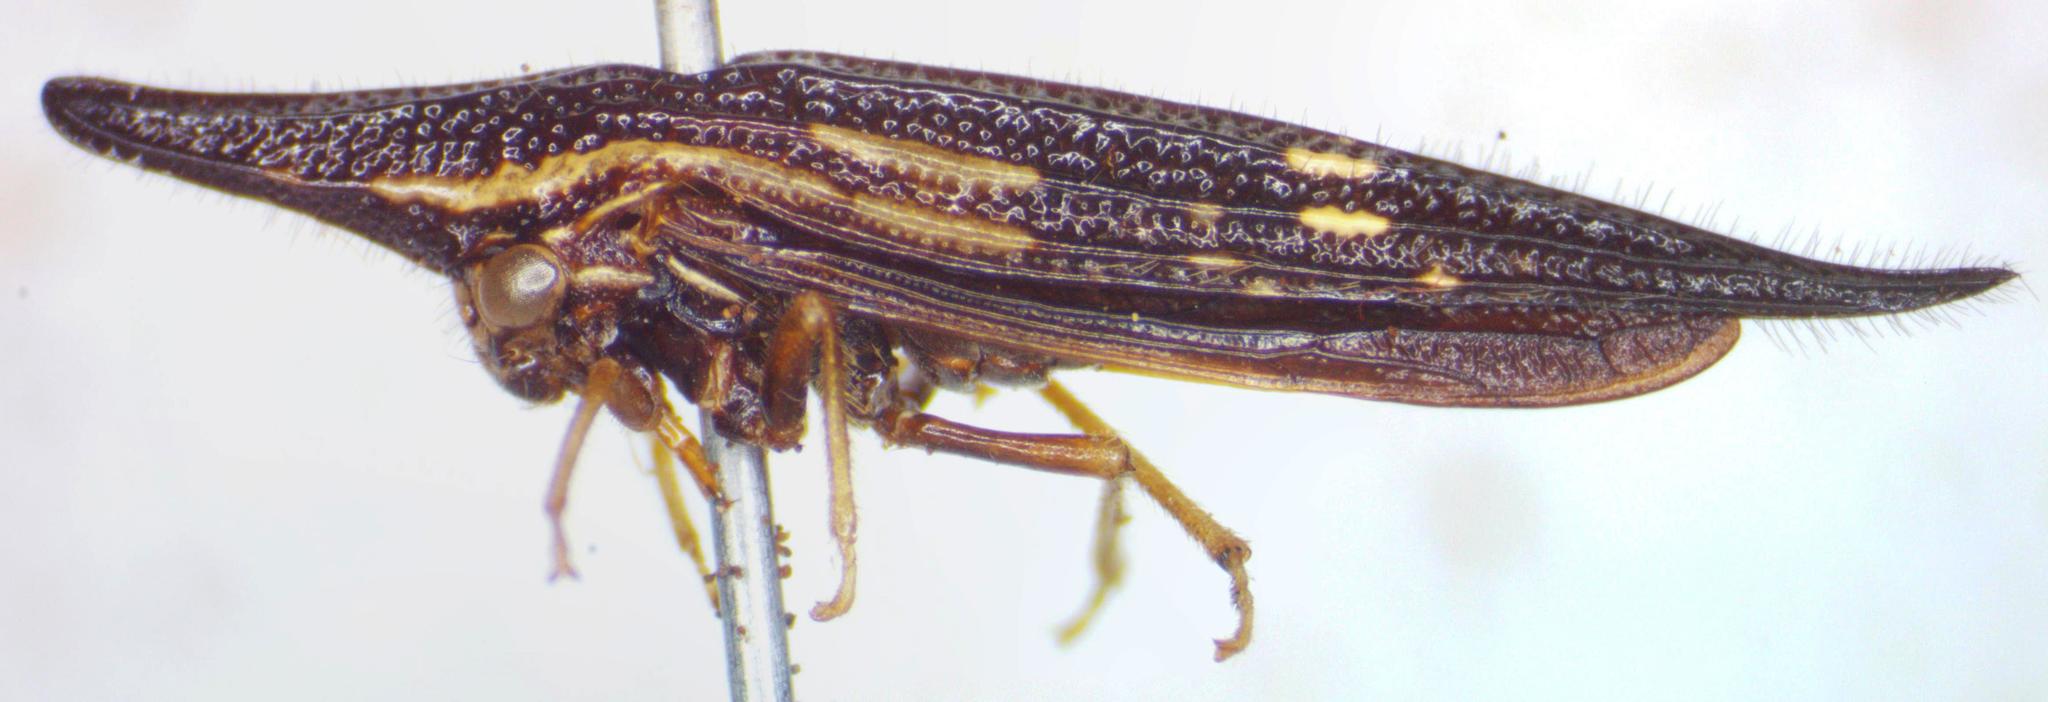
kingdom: Animalia
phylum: Arthropoda
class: Insecta
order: Hemiptera
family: Membracidae
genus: Polyglypta
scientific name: Polyglypta costata
